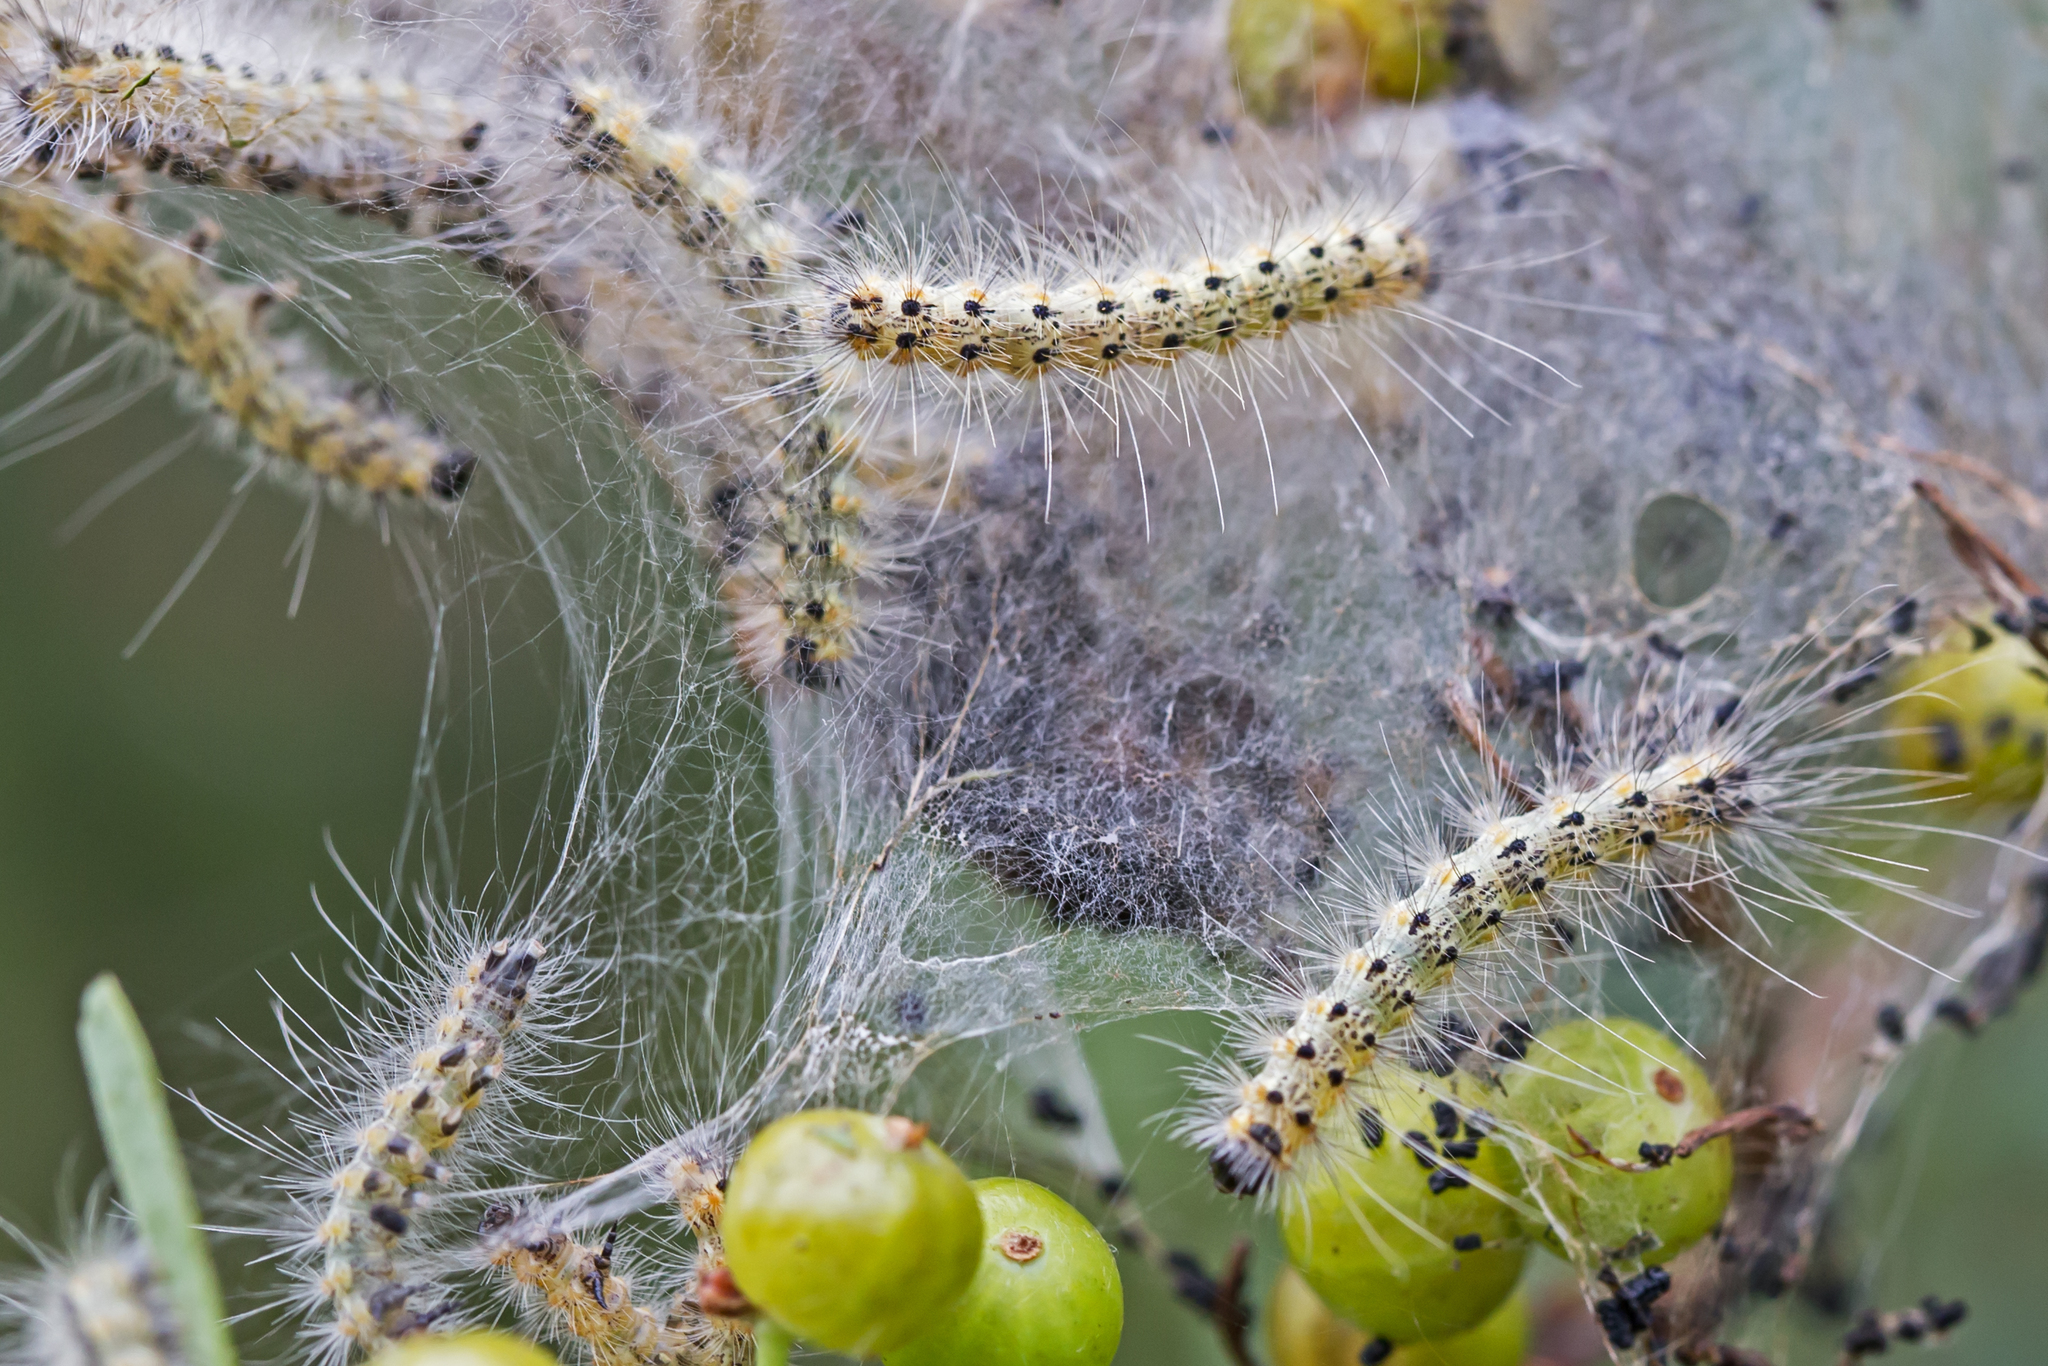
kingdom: Animalia
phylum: Arthropoda
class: Insecta
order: Lepidoptera
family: Erebidae
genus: Hyphantria
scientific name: Hyphantria cunea
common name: American white moth
